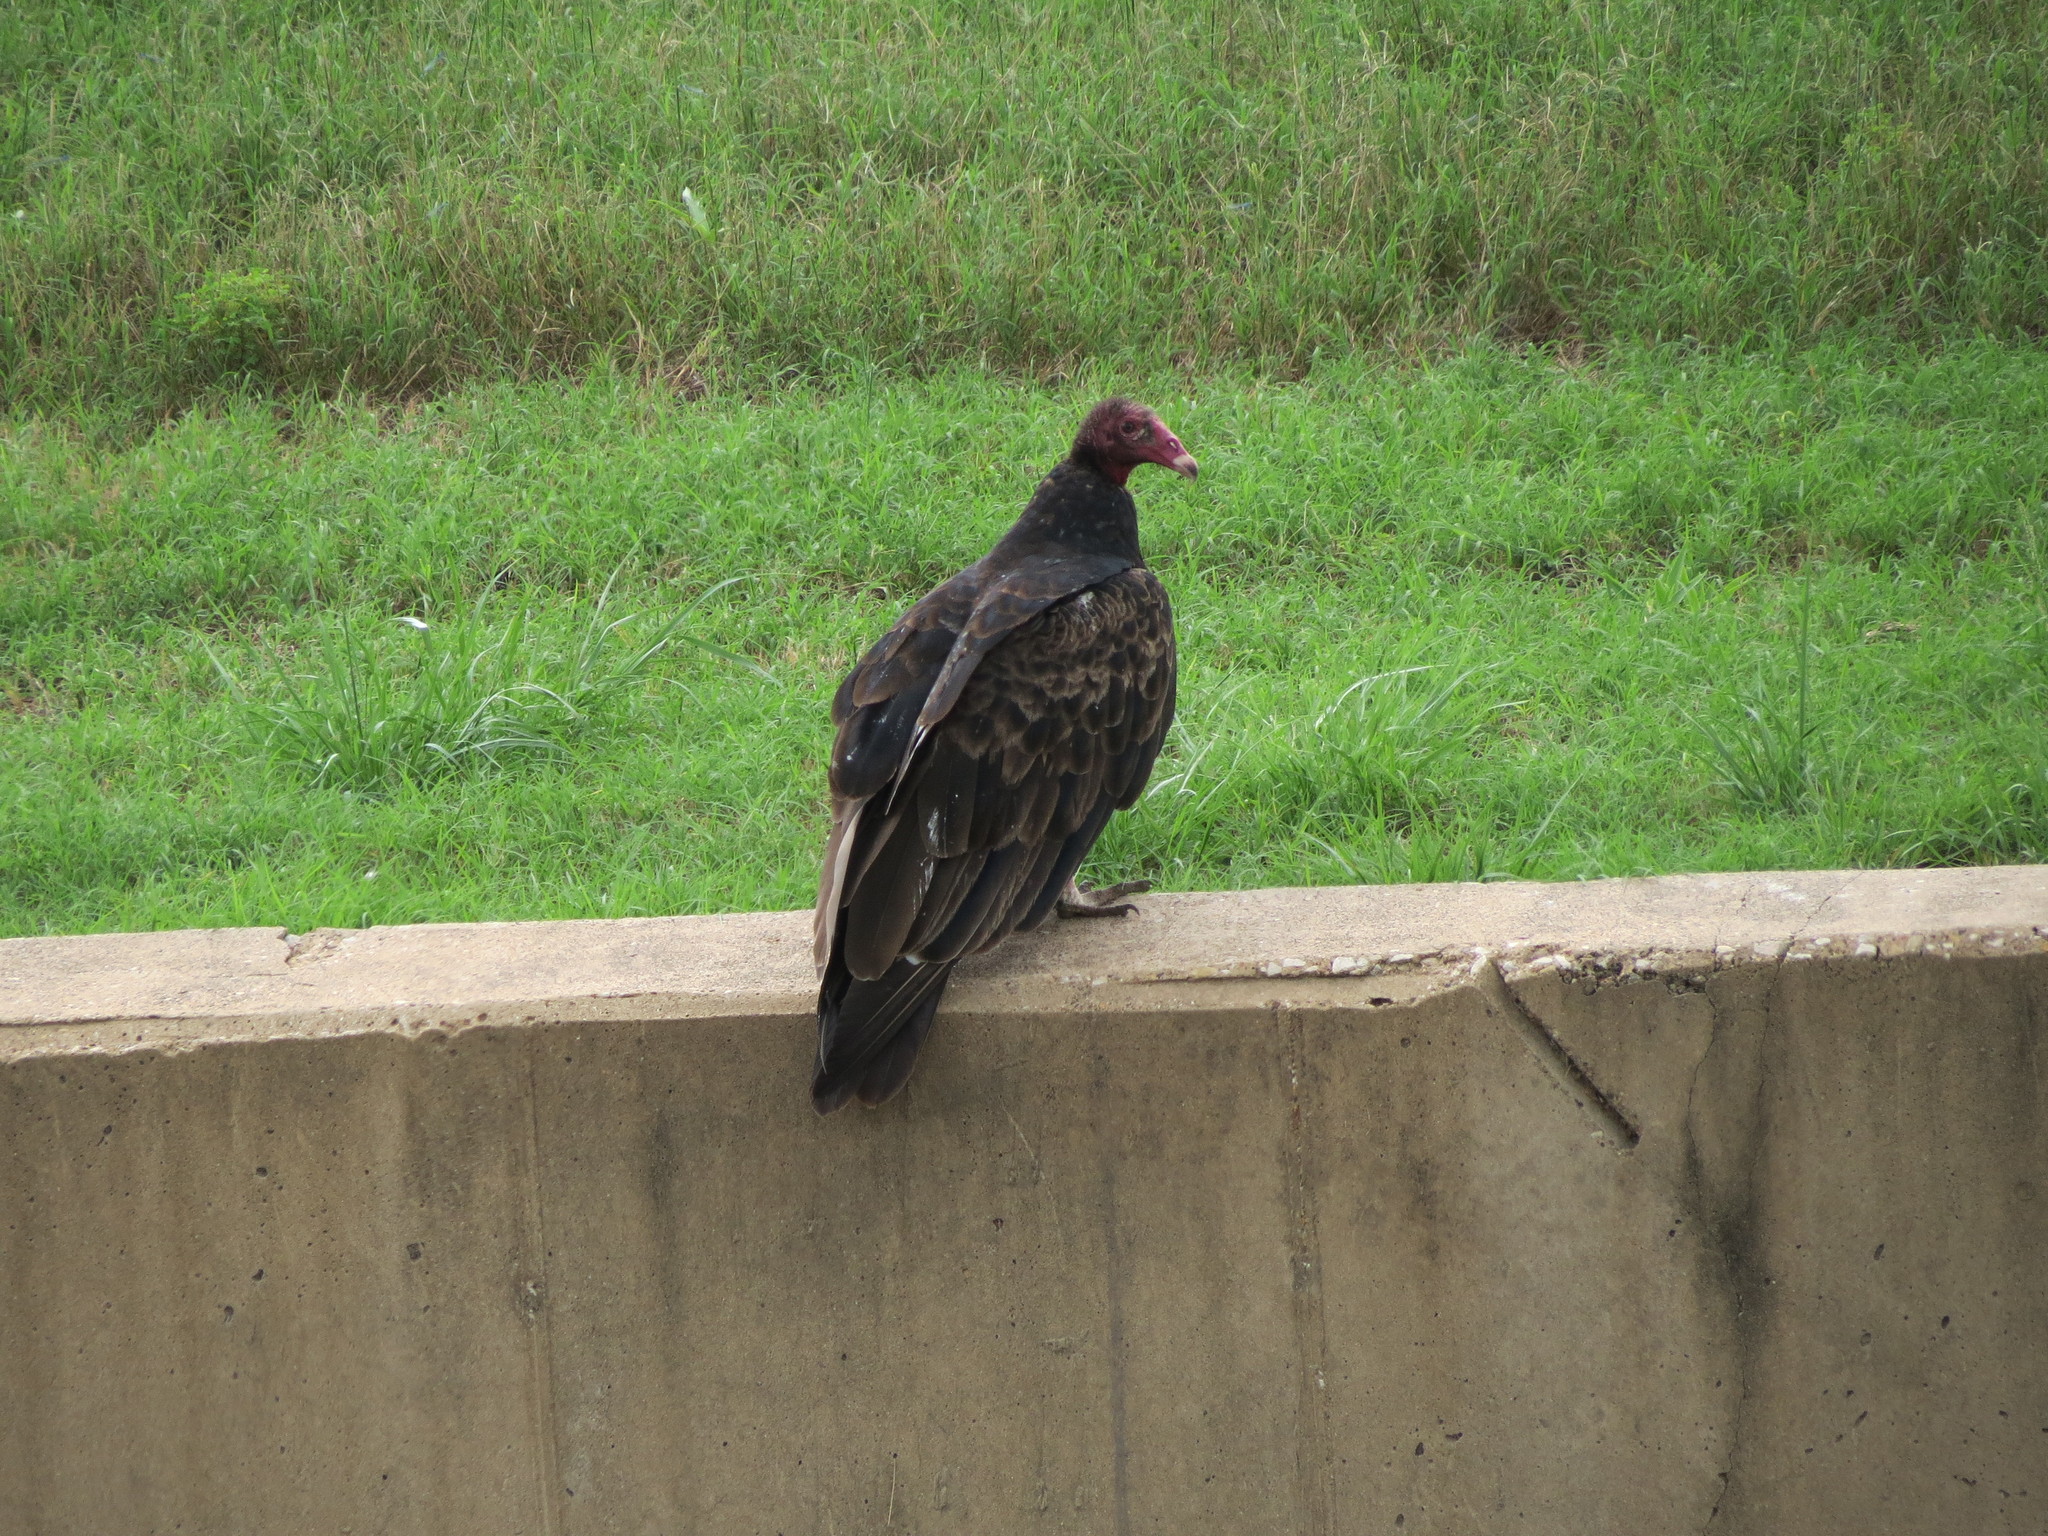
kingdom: Animalia
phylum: Chordata
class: Aves
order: Accipitriformes
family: Cathartidae
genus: Cathartes
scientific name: Cathartes aura
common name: Turkey vulture
